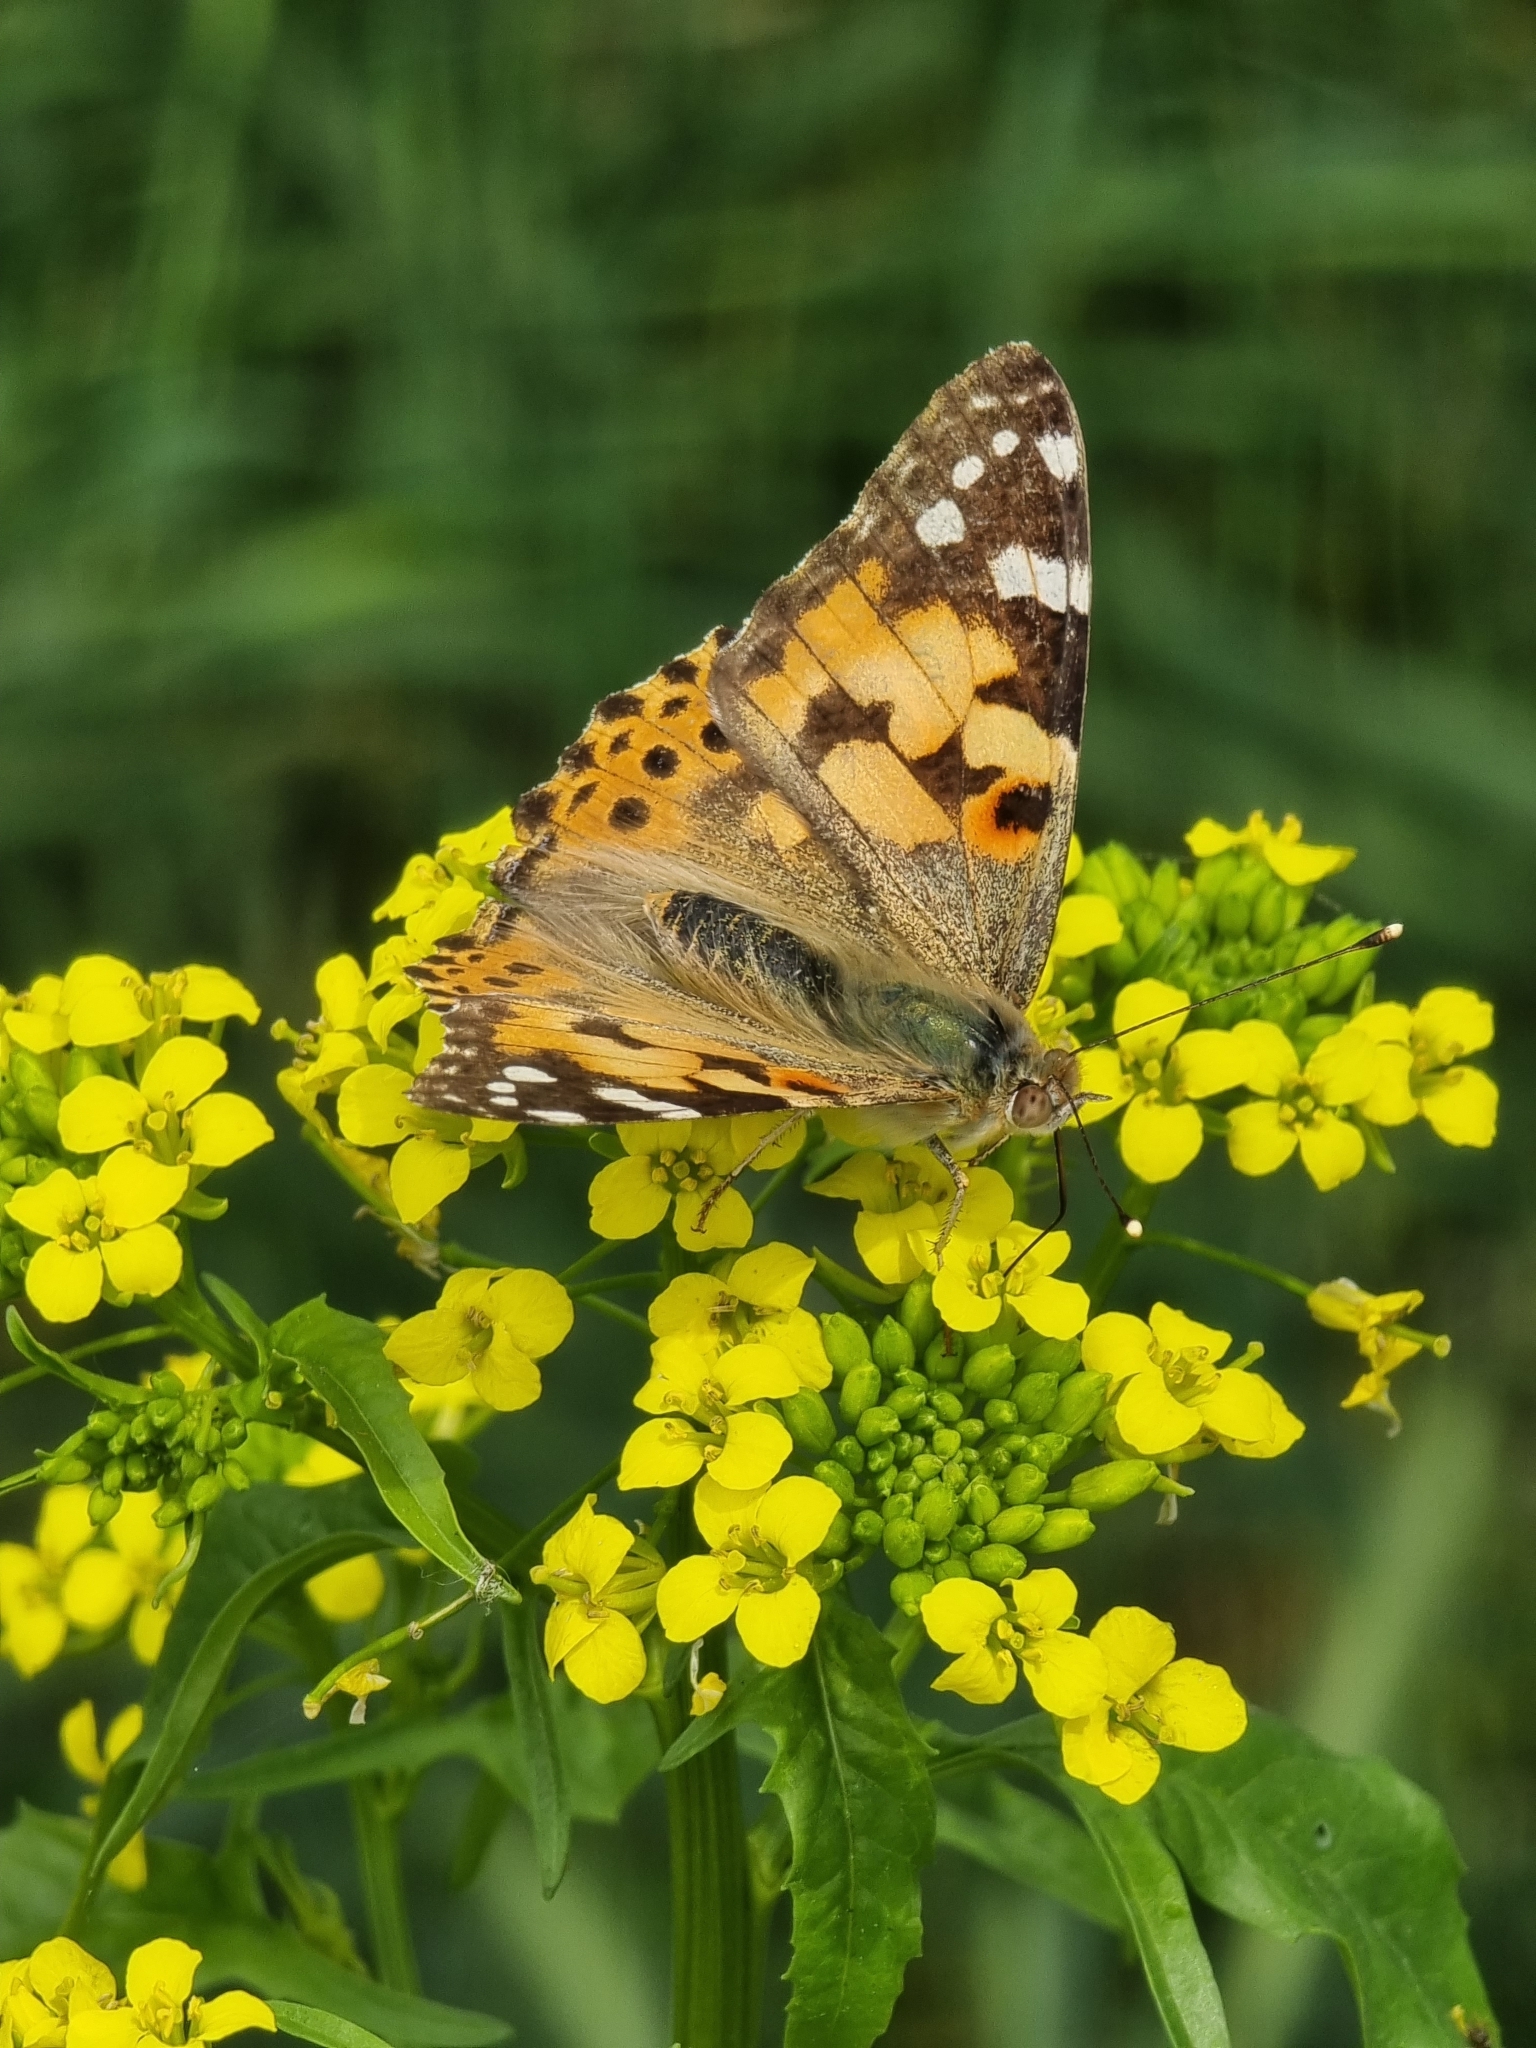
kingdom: Animalia
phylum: Arthropoda
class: Insecta
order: Lepidoptera
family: Nymphalidae
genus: Vanessa
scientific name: Vanessa cardui
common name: Painted lady
